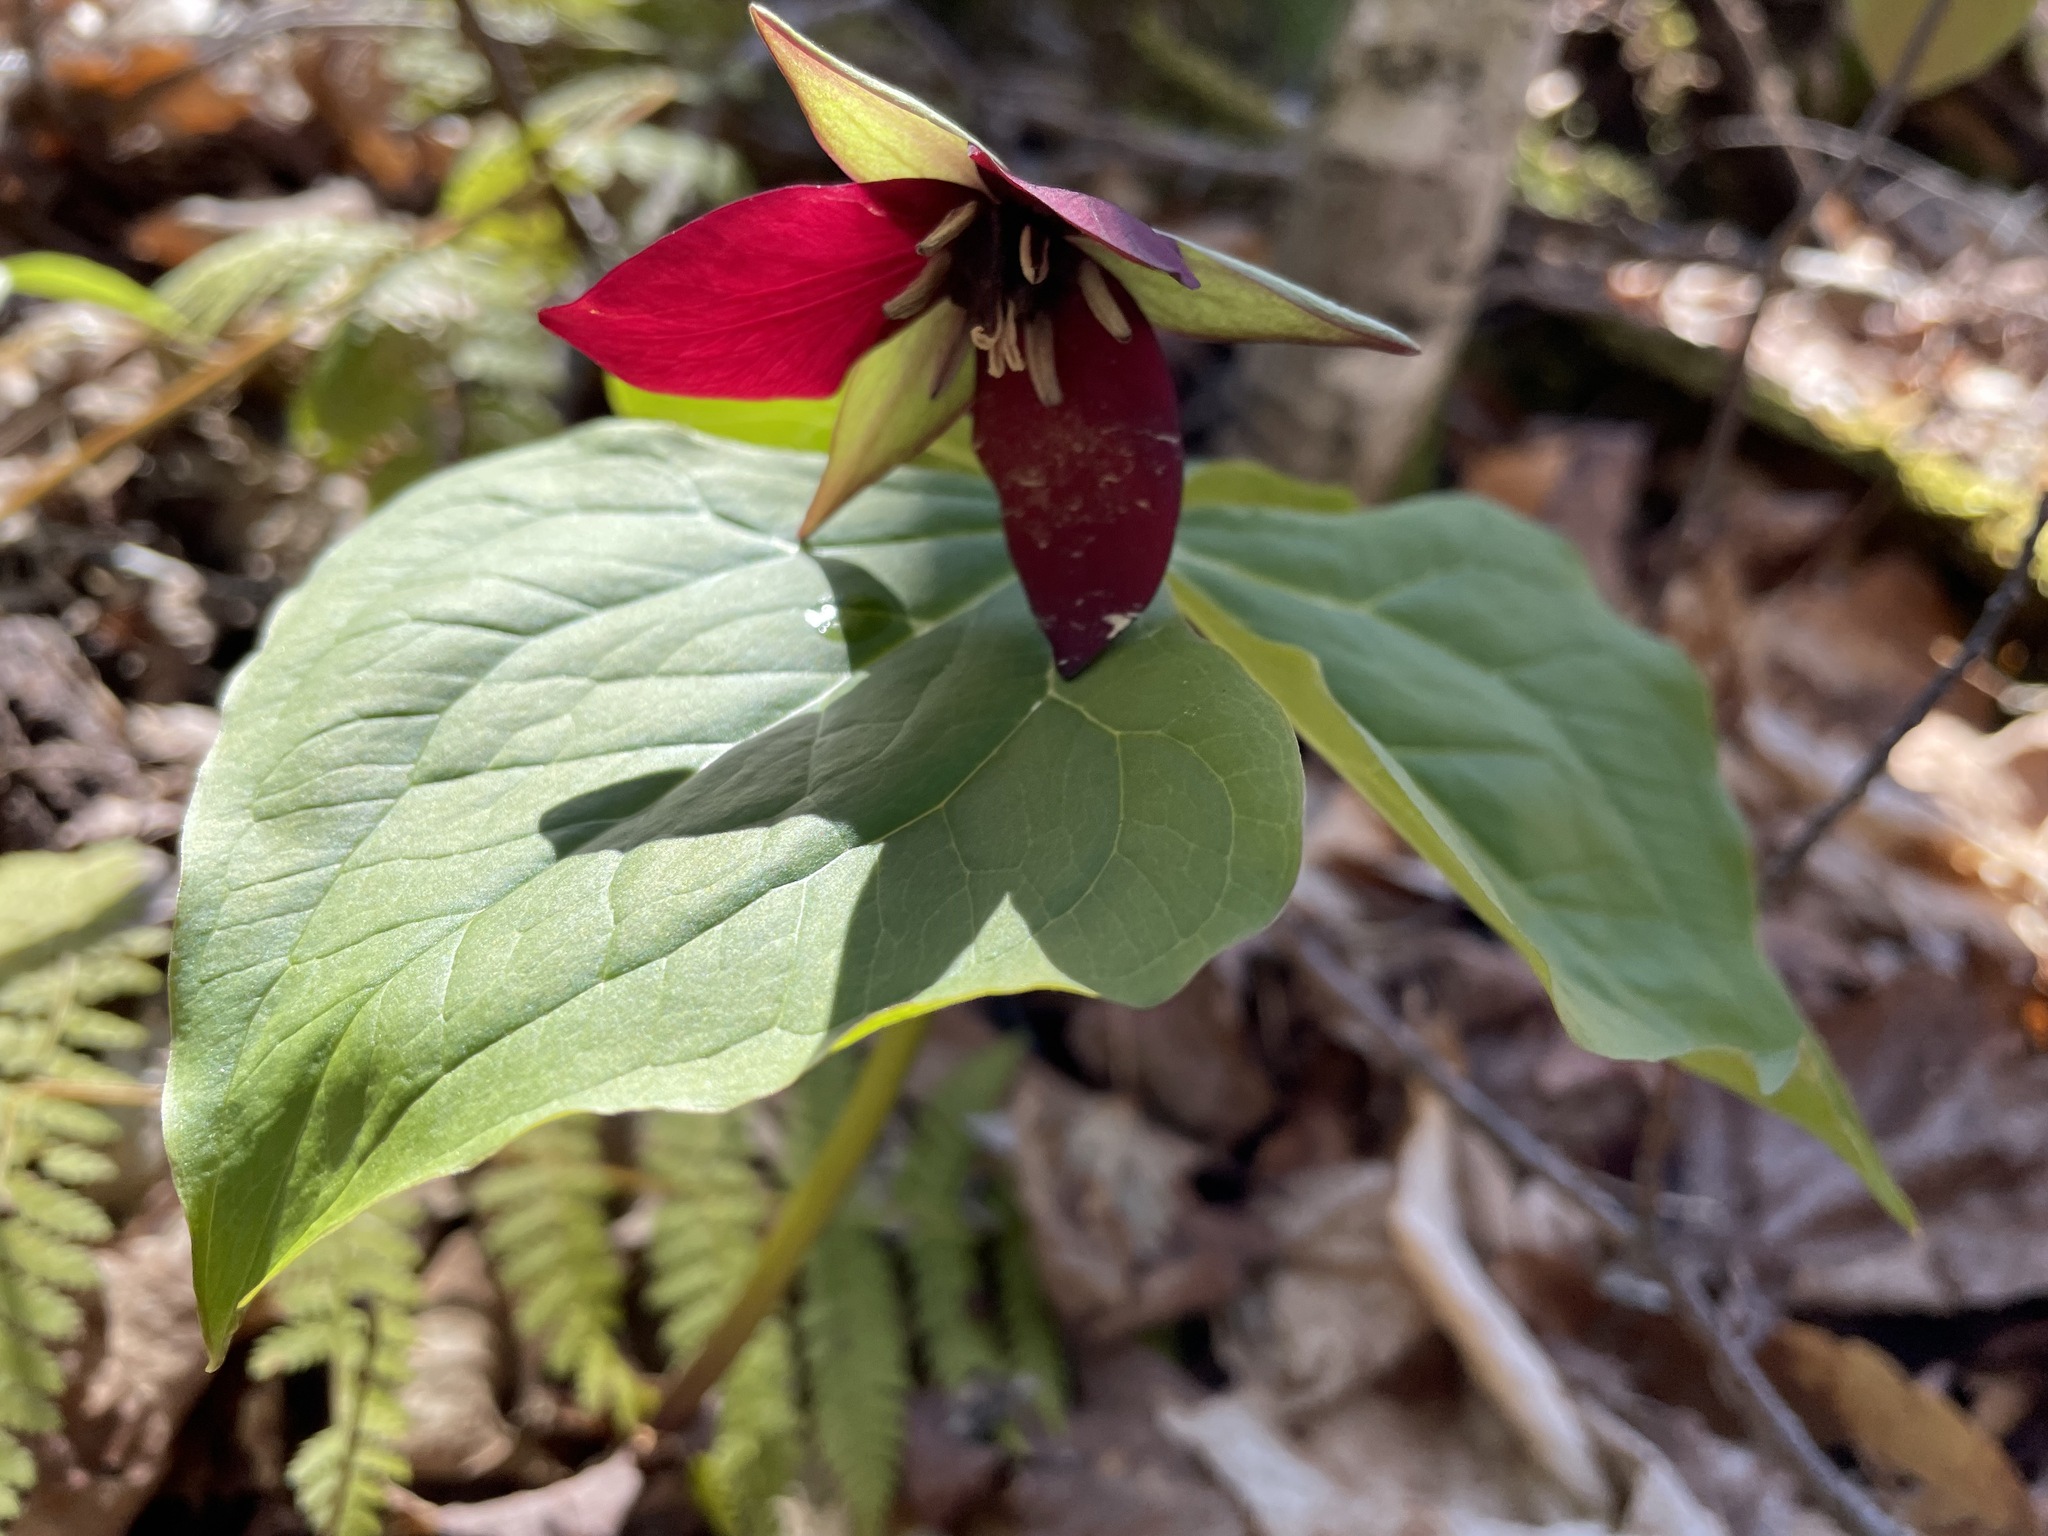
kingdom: Plantae
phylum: Tracheophyta
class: Liliopsida
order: Liliales
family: Melanthiaceae
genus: Trillium
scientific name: Trillium erectum
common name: Purple trillium
